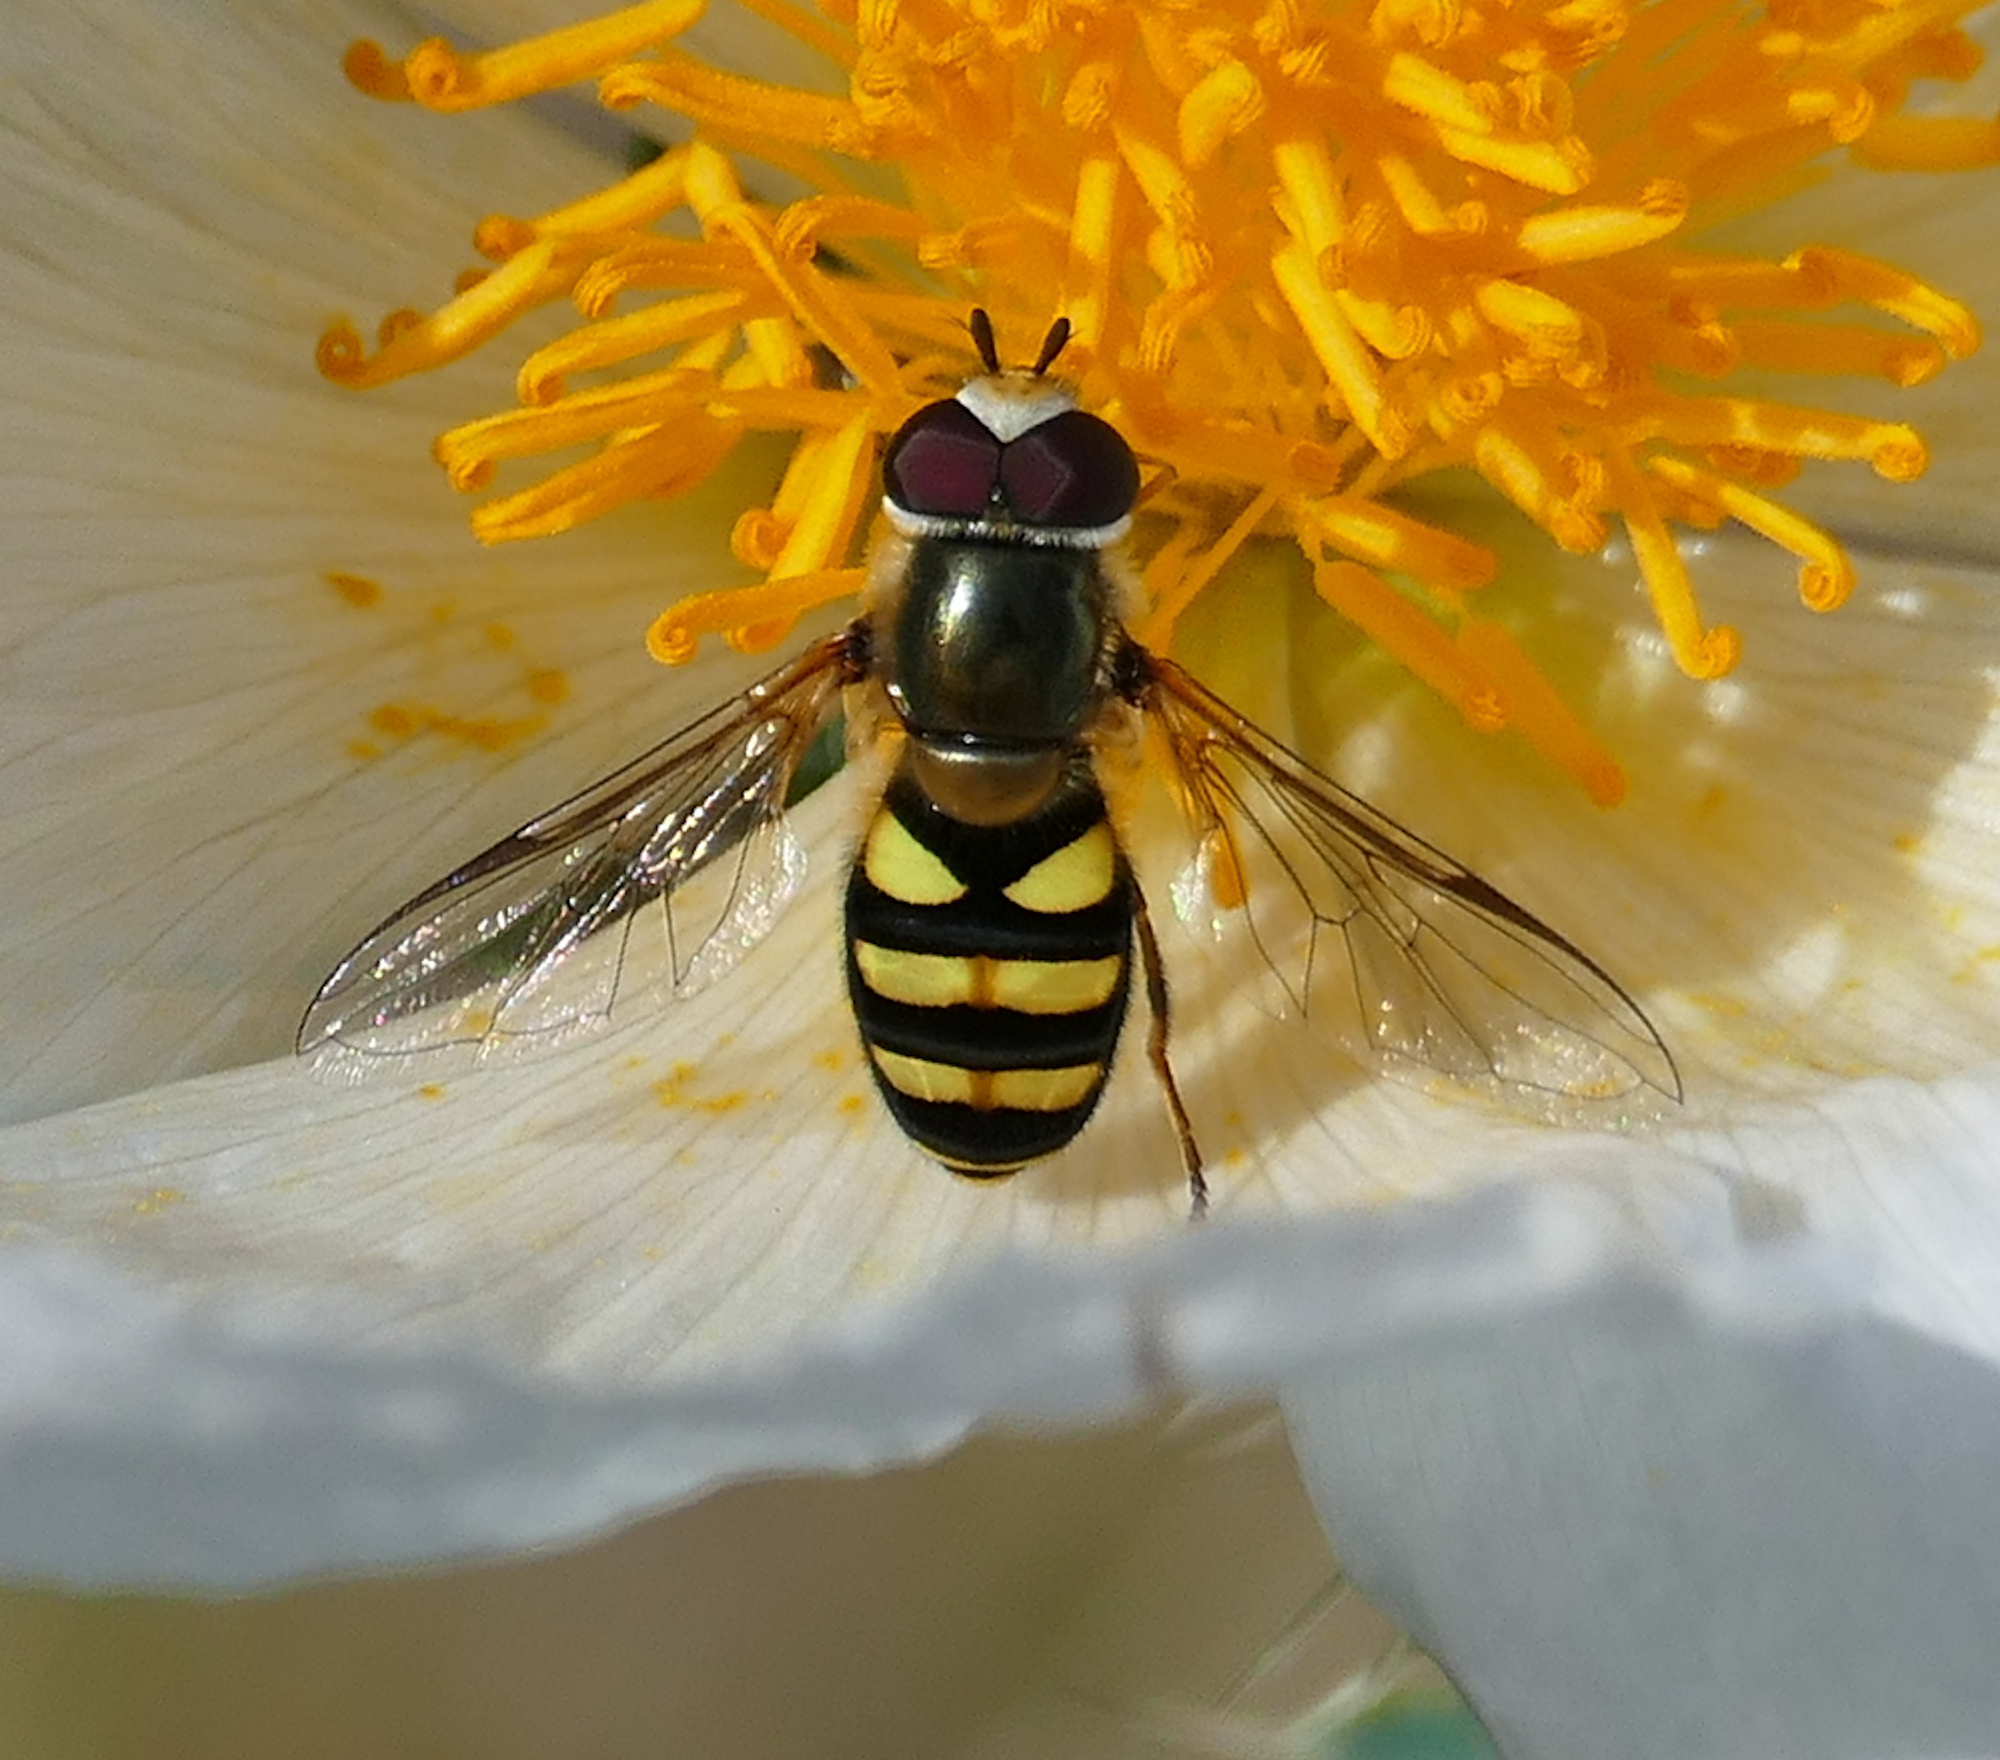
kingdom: Animalia
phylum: Arthropoda
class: Insecta
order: Diptera
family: Syrphidae
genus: Eupeodes
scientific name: Eupeodes
